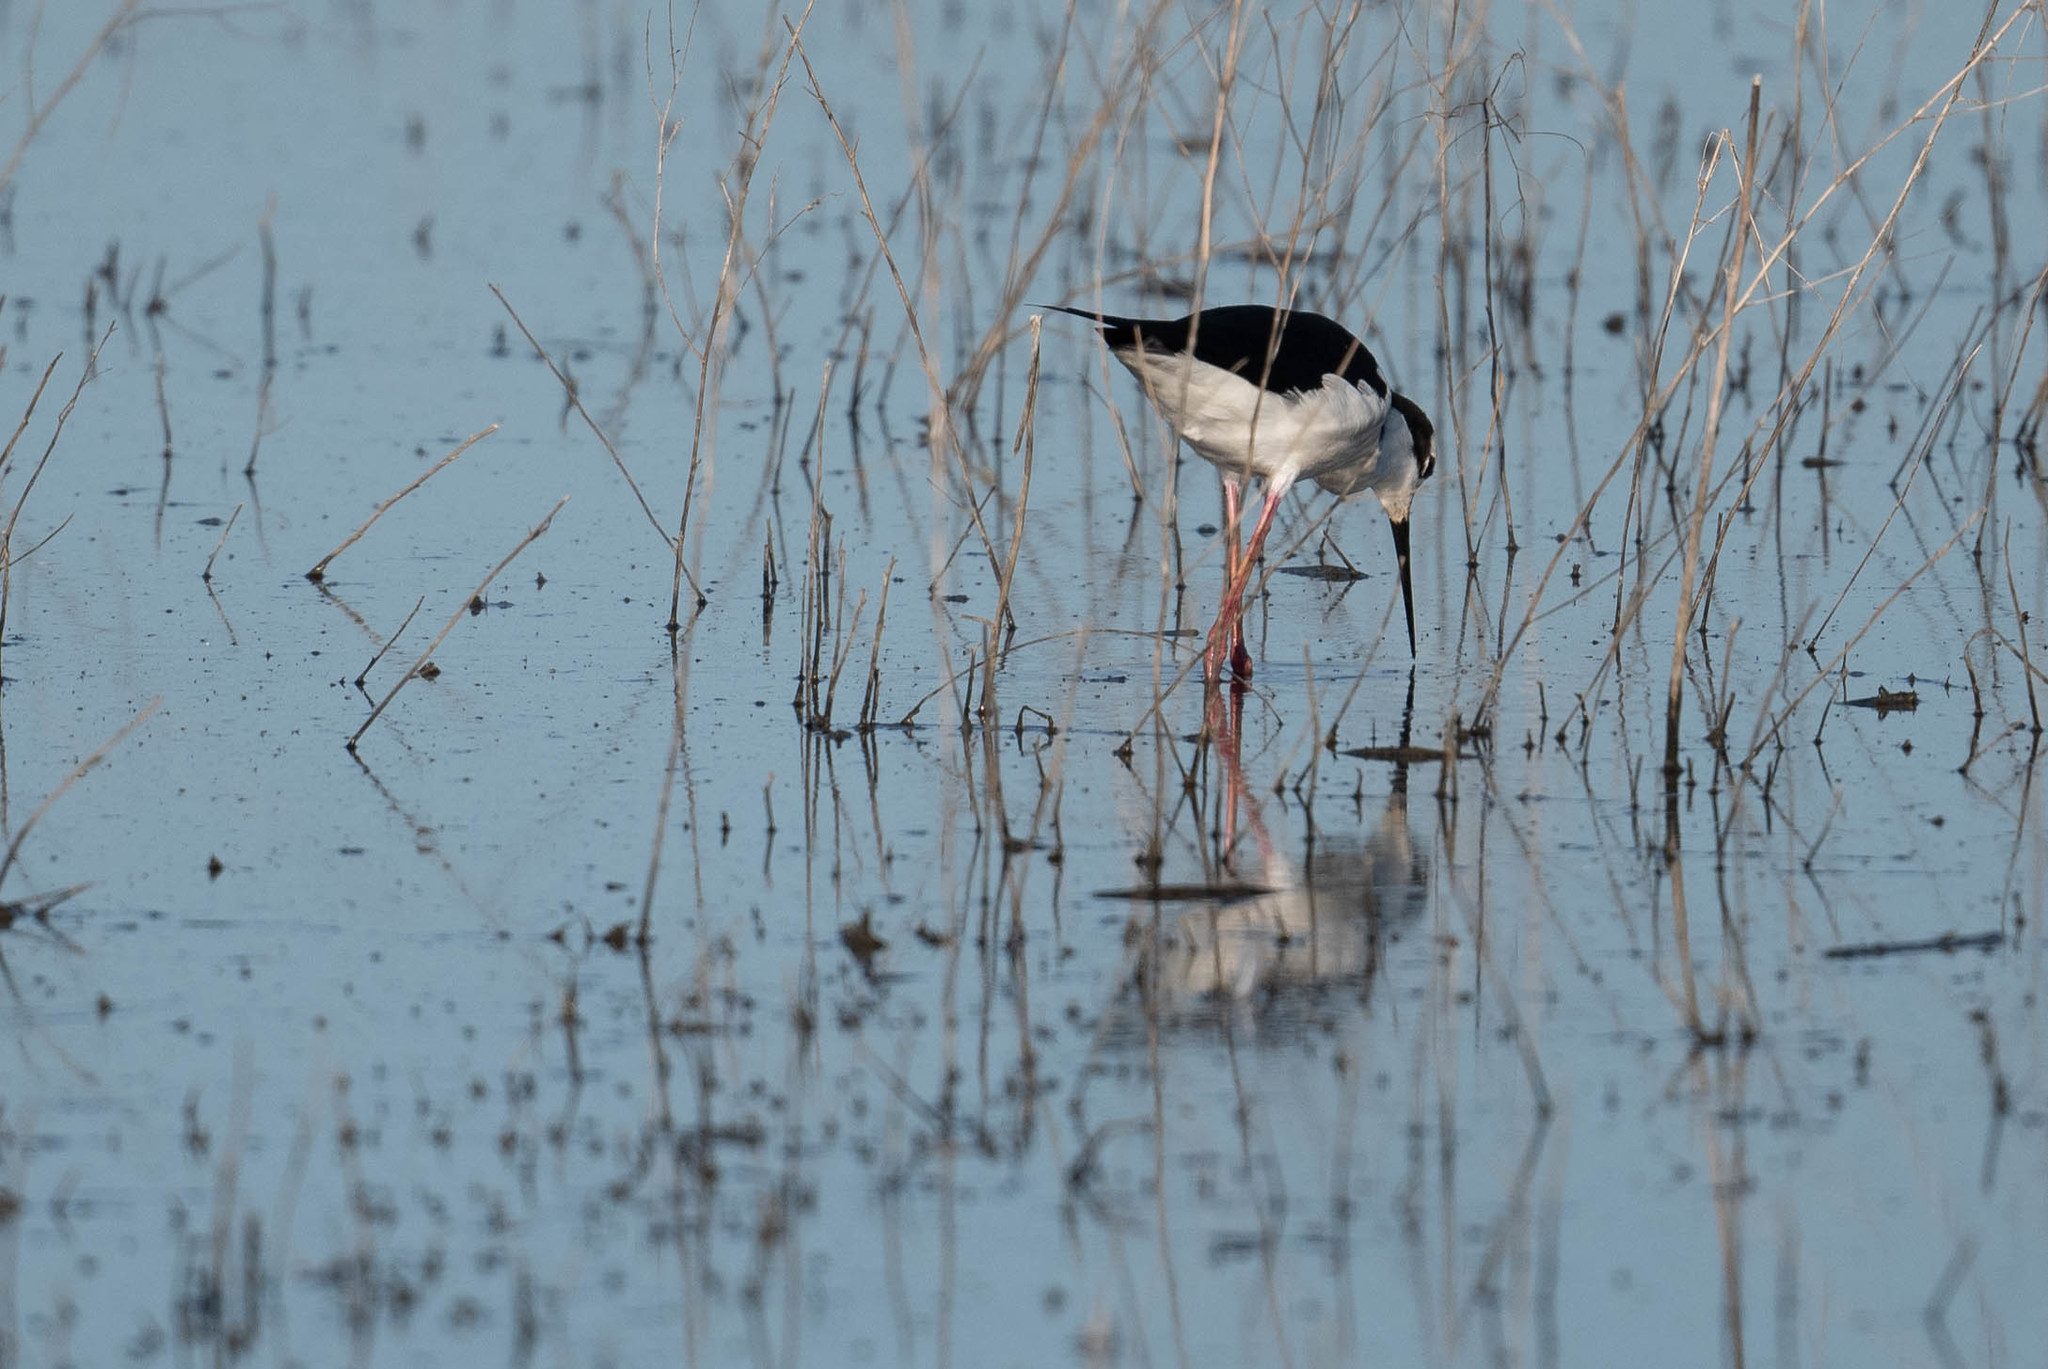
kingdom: Animalia
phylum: Chordata
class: Aves
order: Charadriiformes
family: Recurvirostridae
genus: Himantopus
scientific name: Himantopus mexicanus
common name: Black-necked stilt
